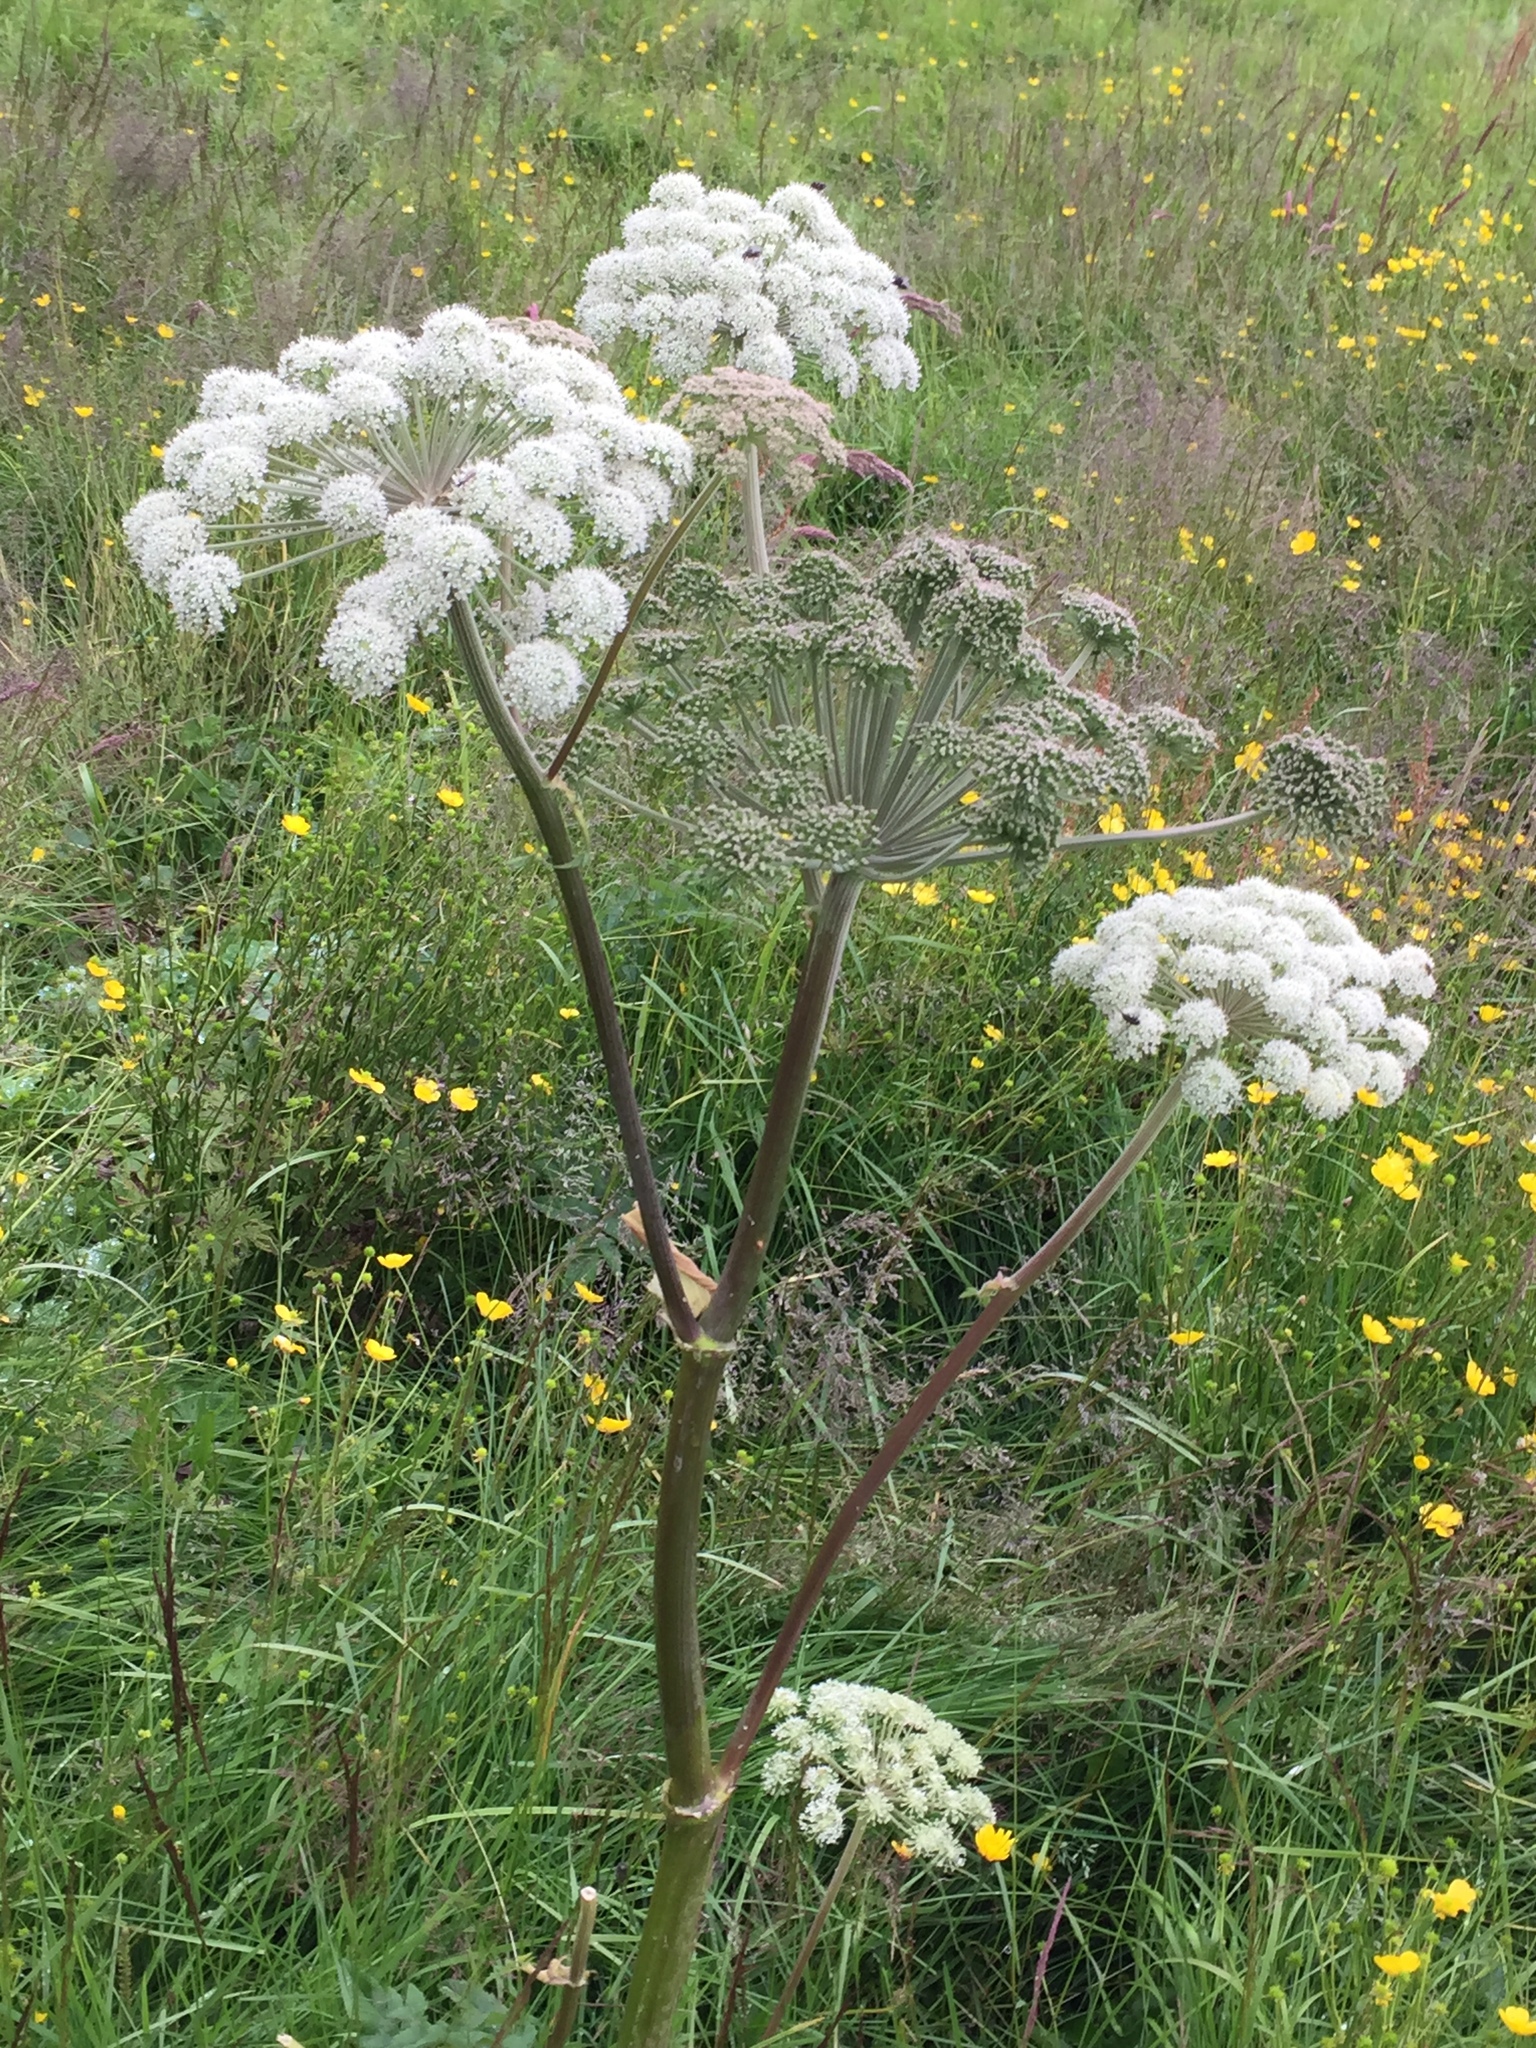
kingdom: Plantae
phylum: Tracheophyta
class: Magnoliopsida
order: Apiales
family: Apiaceae
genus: Angelica
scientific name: Angelica sylvestris
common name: Wild angelica
